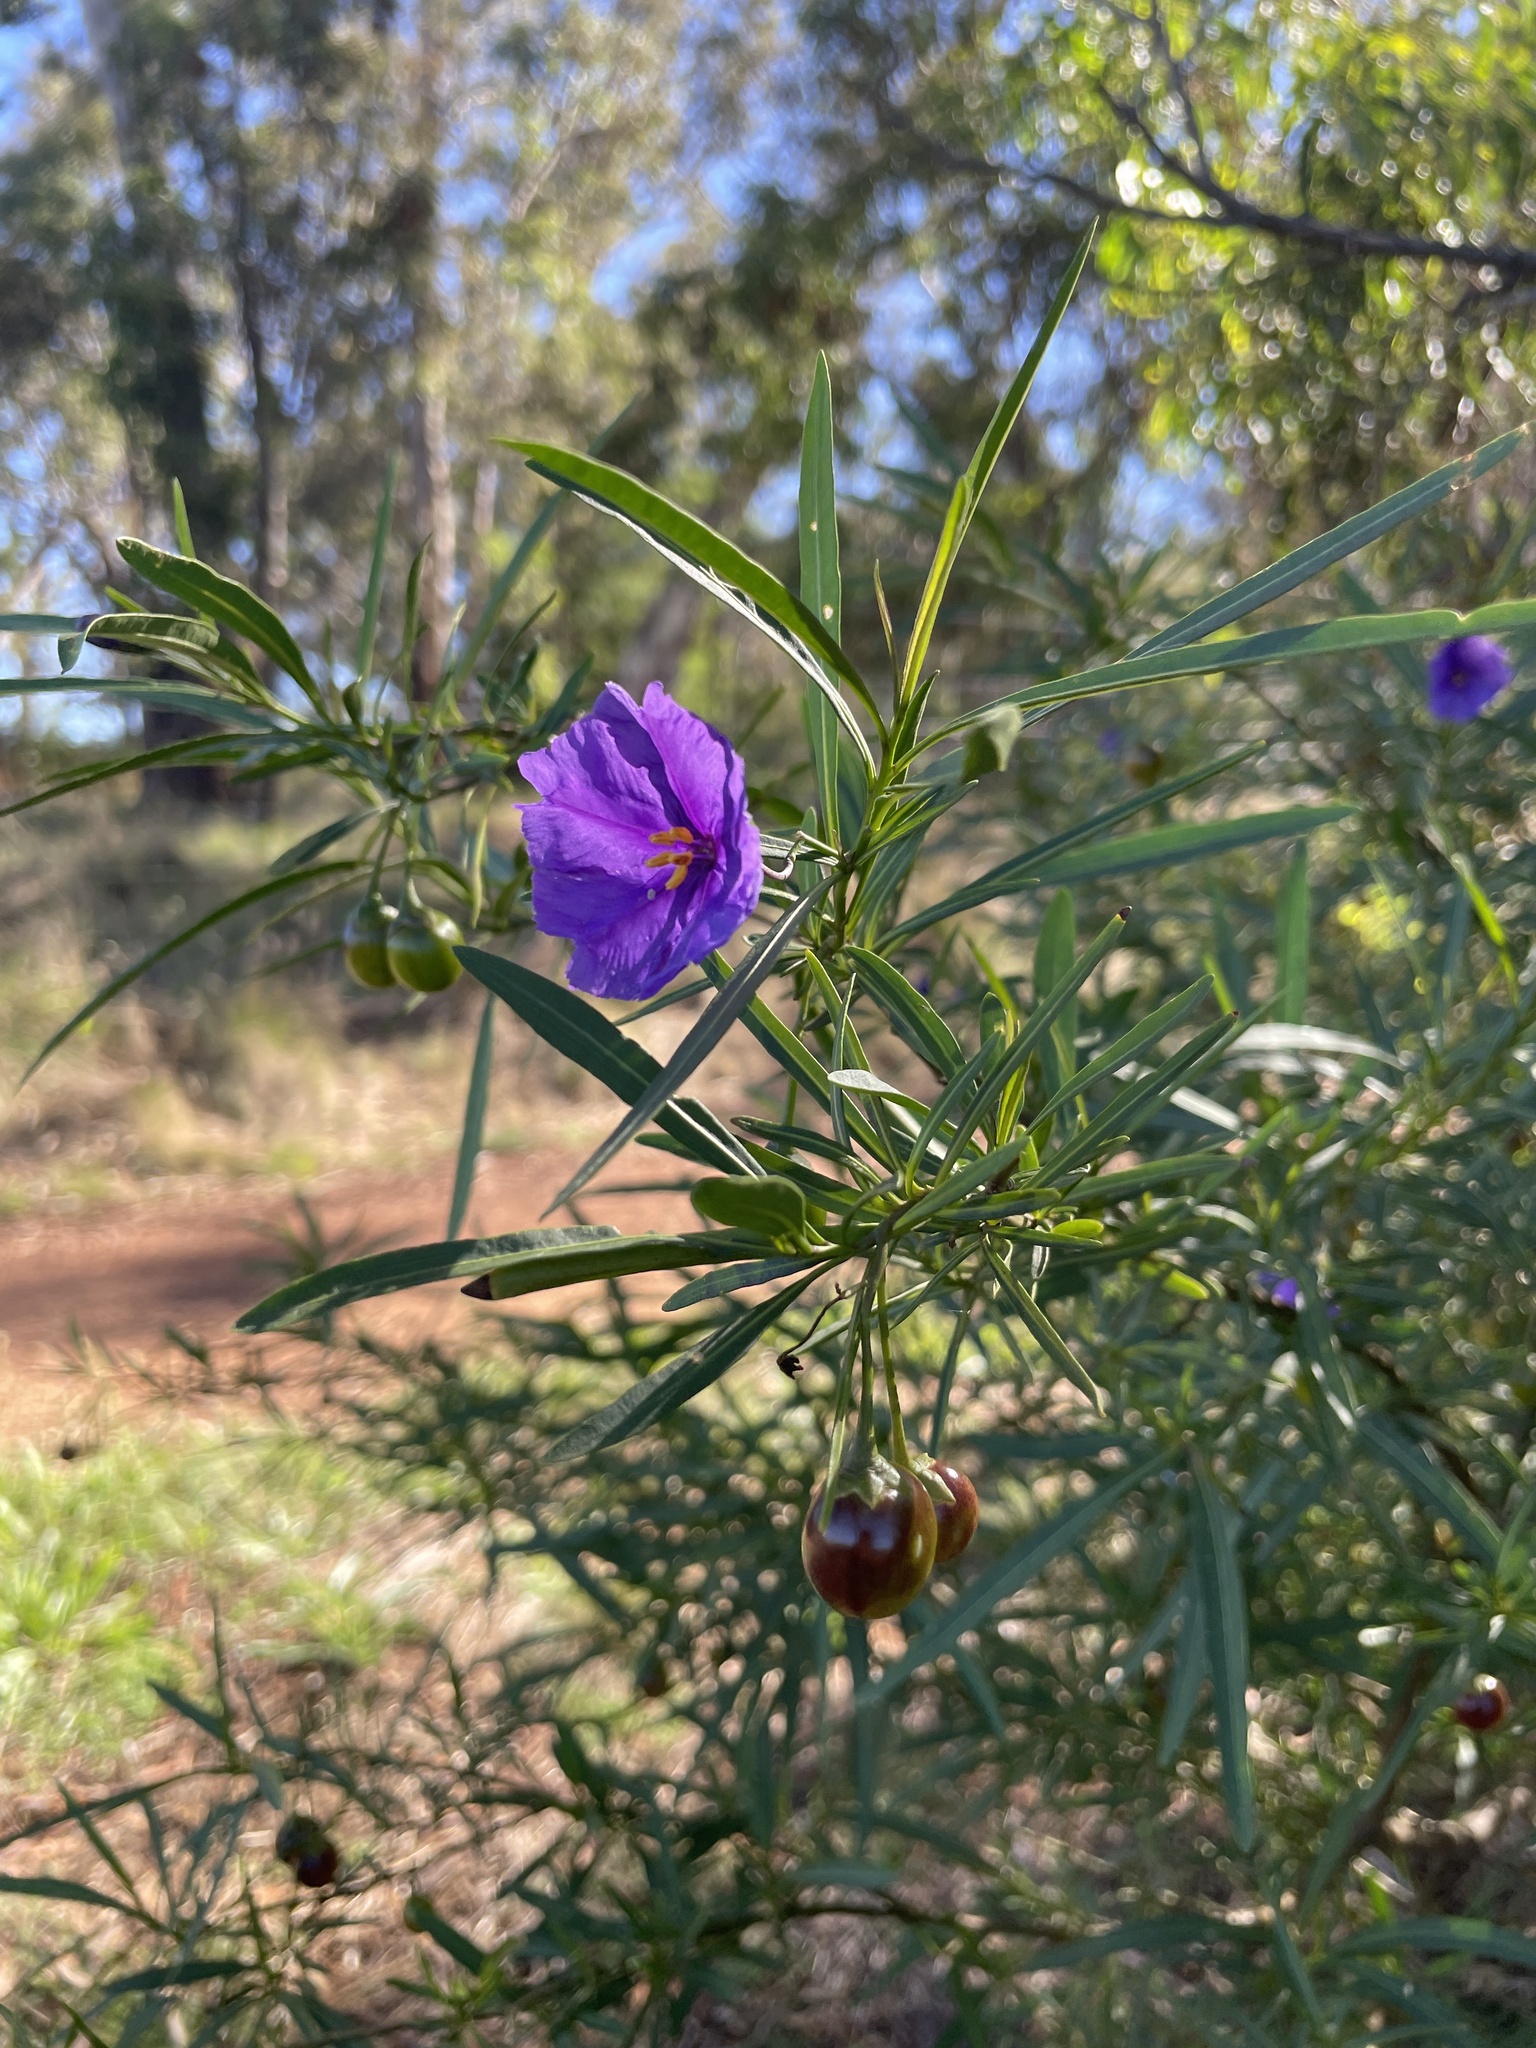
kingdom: Plantae
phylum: Tracheophyta
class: Magnoliopsida
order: Solanales
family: Solanaceae
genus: Solanum
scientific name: Solanum linearifolium
